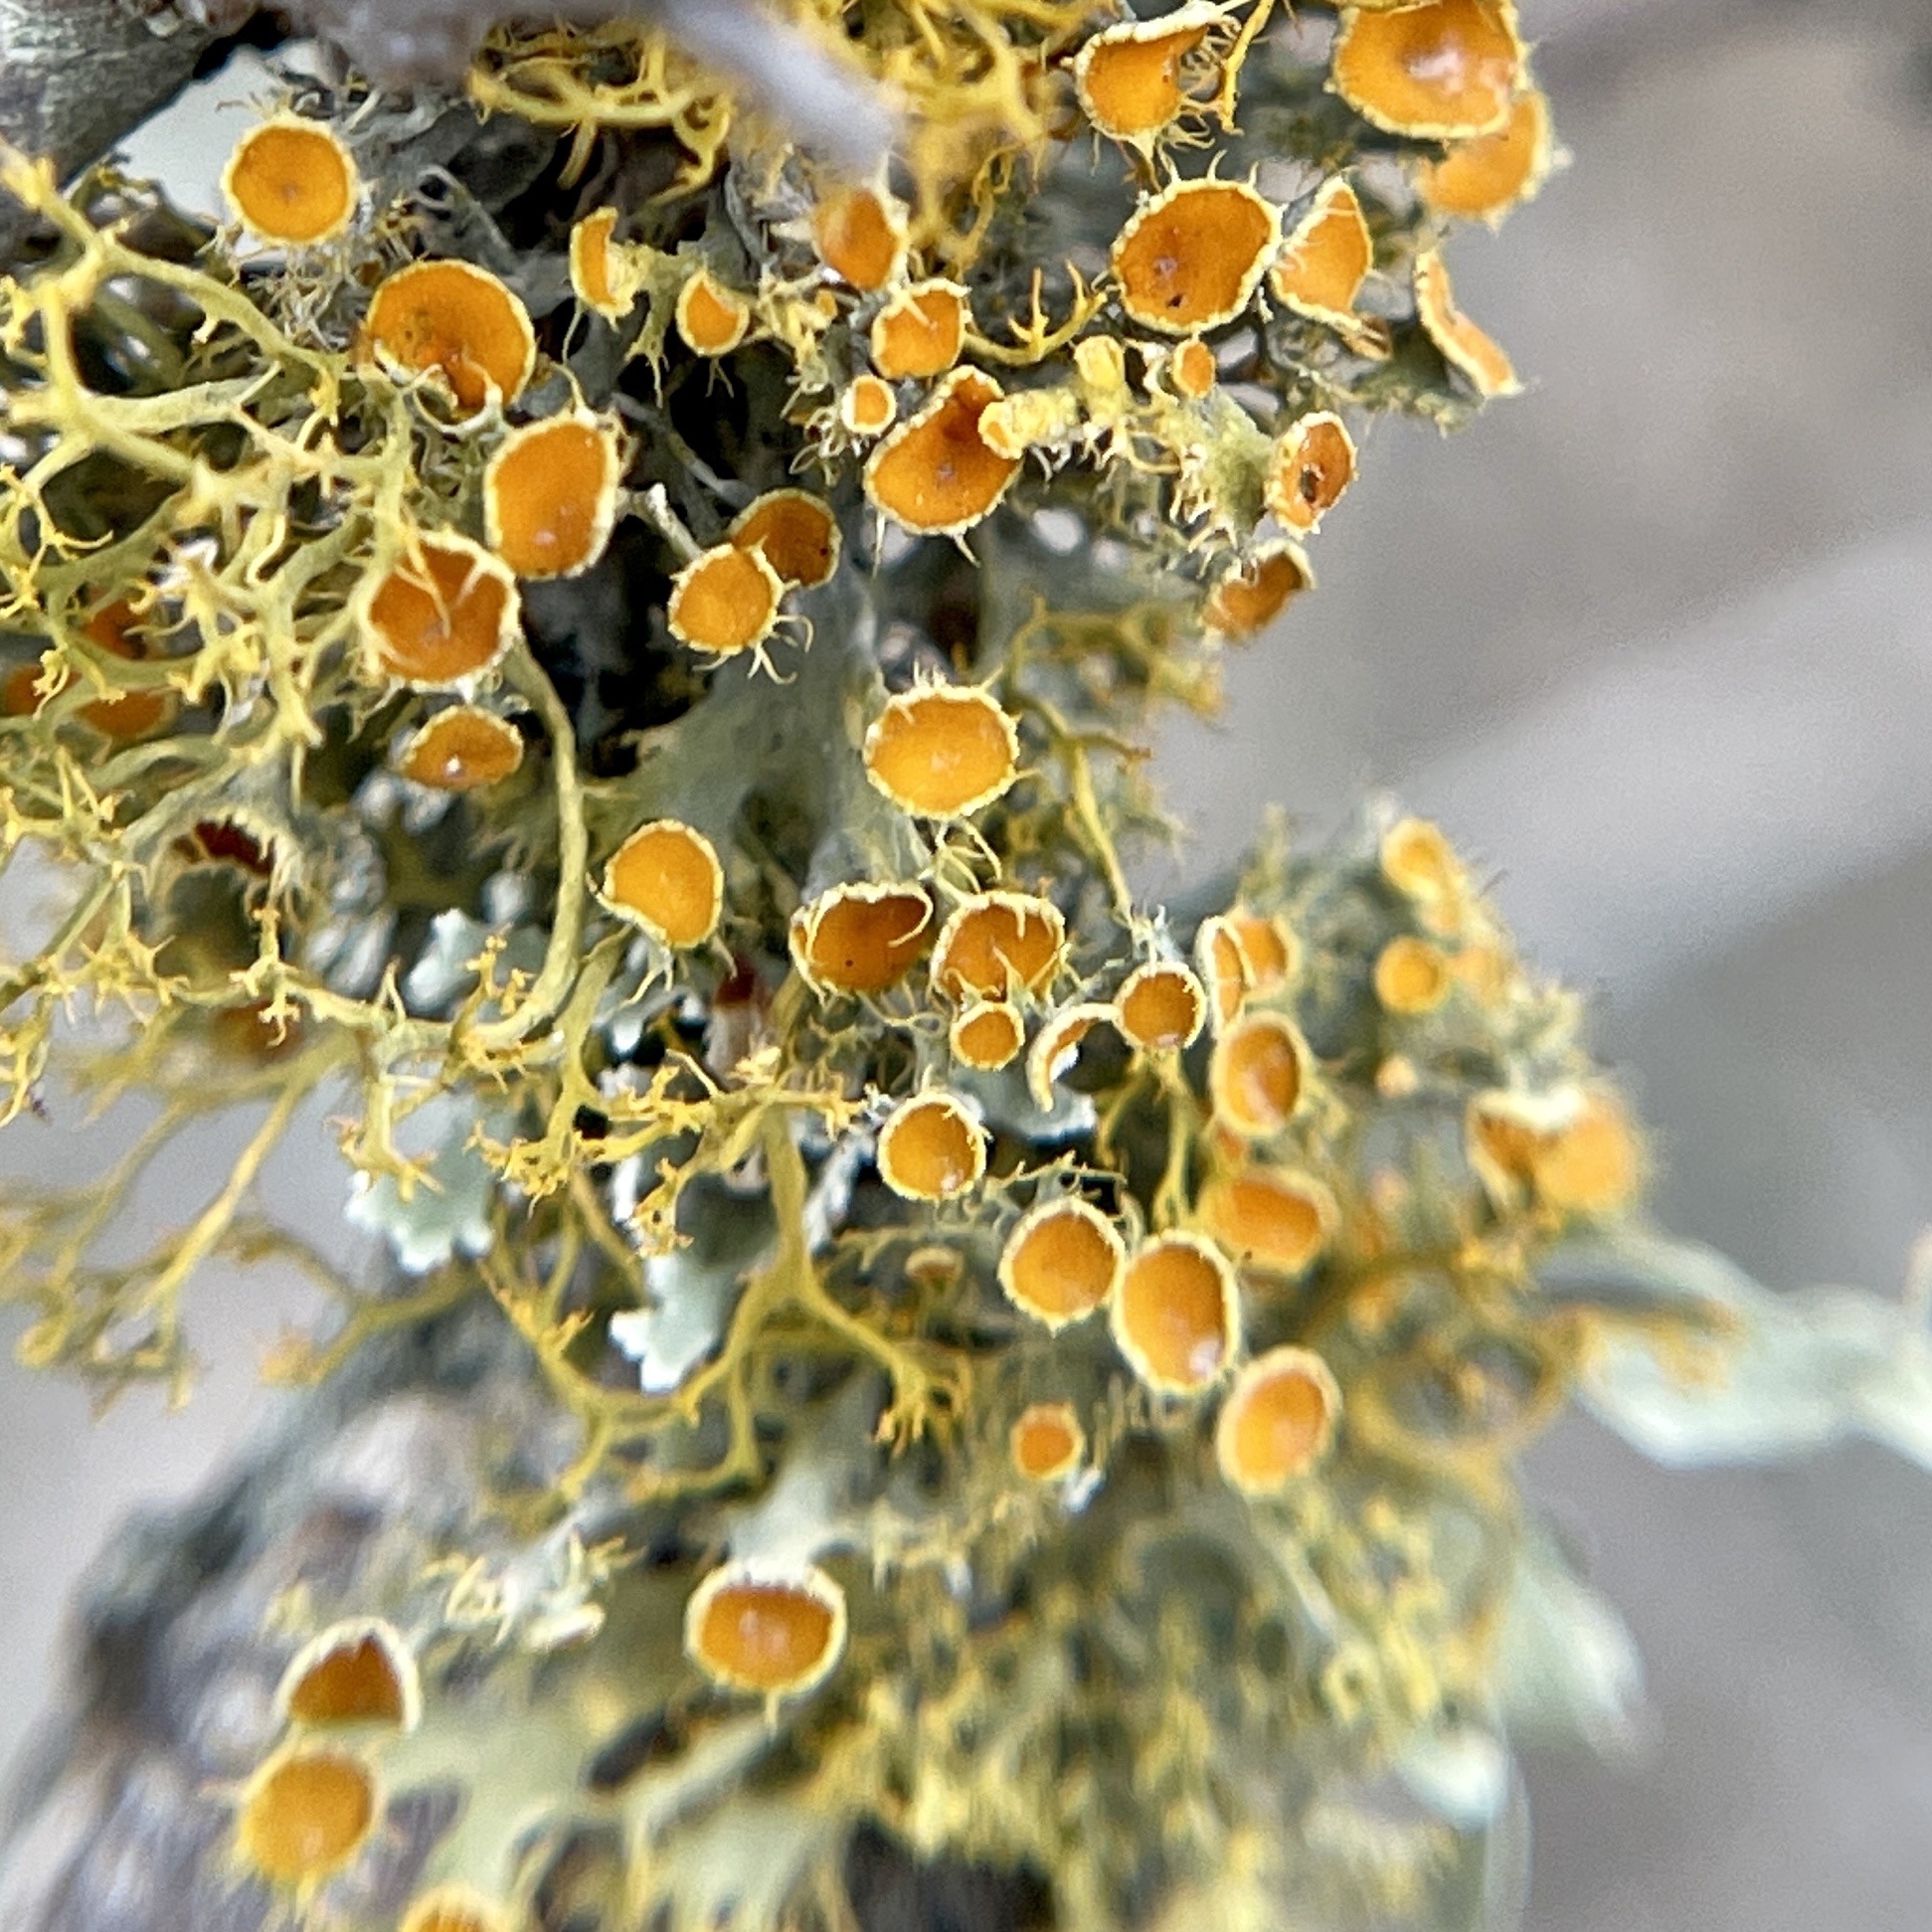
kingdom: Fungi
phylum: Ascomycota
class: Lecanoromycetes
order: Teloschistales
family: Teloschistaceae
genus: Niorma
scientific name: Niorma chrysophthalma
